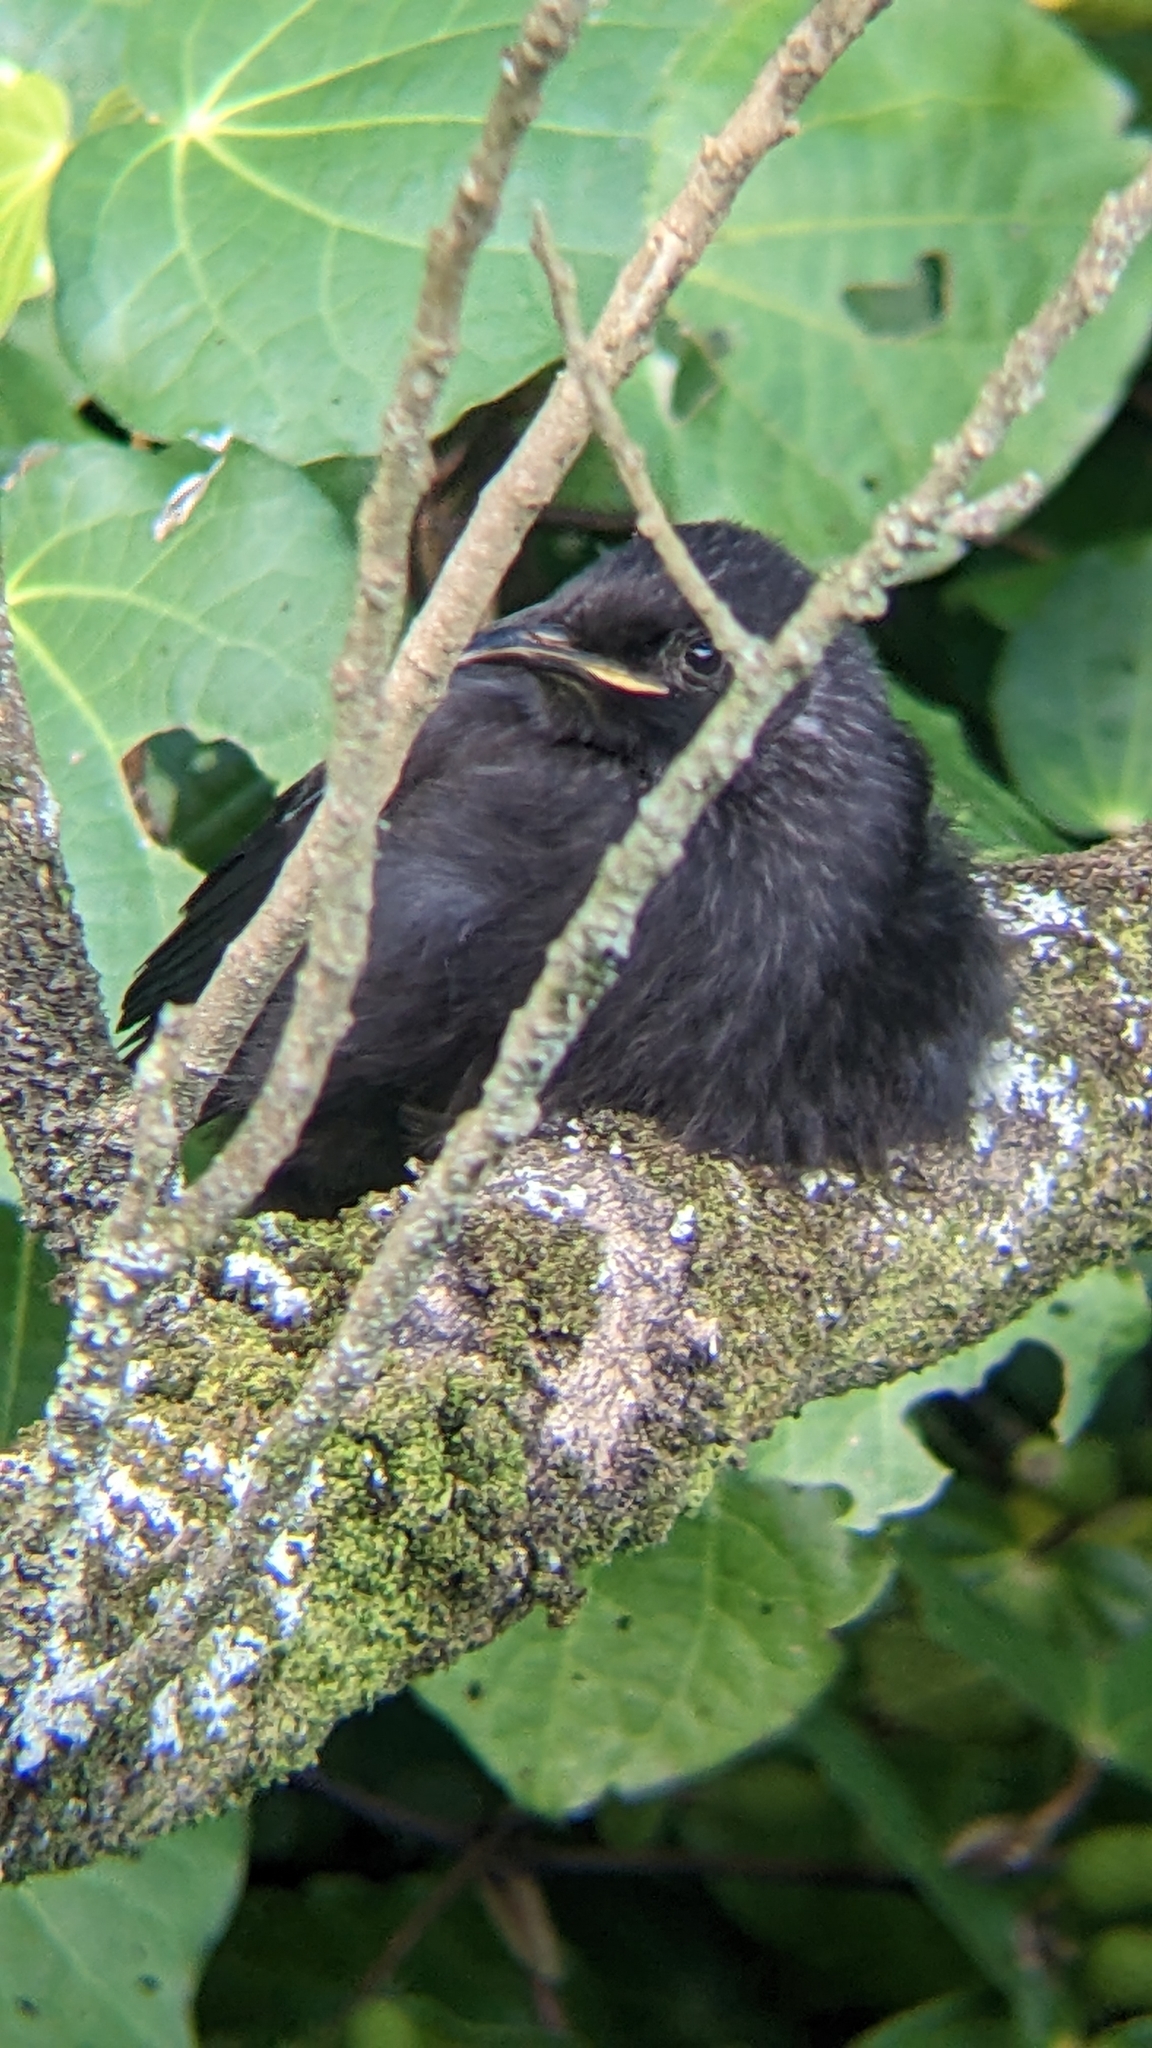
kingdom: Animalia
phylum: Chordata
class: Aves
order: Passeriformes
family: Meliphagidae
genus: Prosthemadera
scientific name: Prosthemadera novaeseelandiae
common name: Tui
